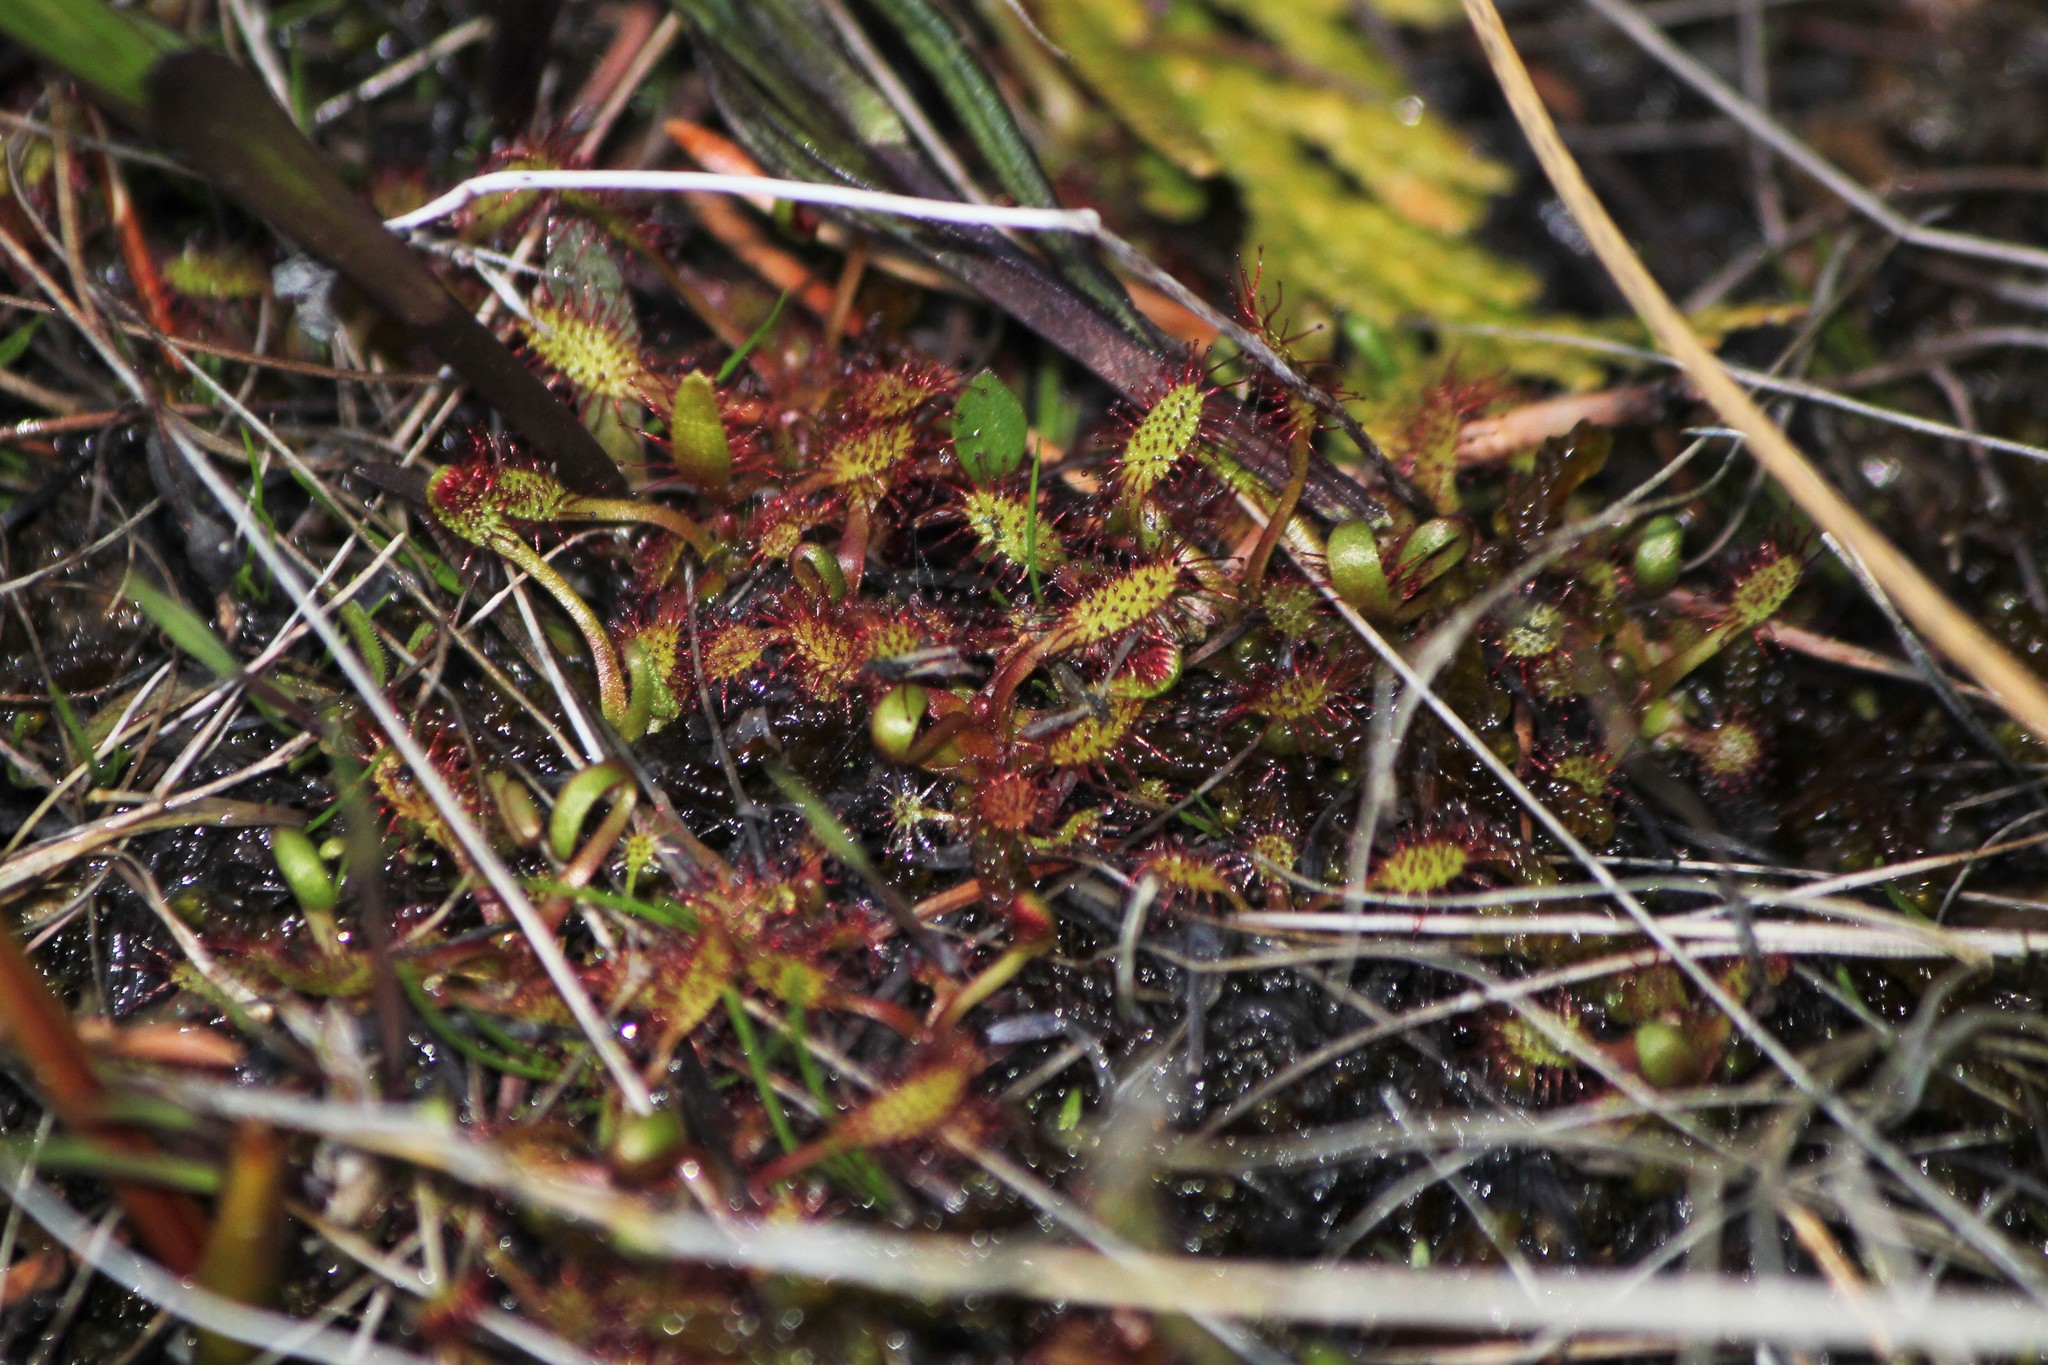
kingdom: Plantae
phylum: Tracheophyta
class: Magnoliopsida
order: Caryophyllales
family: Droseraceae
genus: Drosera
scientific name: Drosera linearis
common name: Linear-leaved sundew
